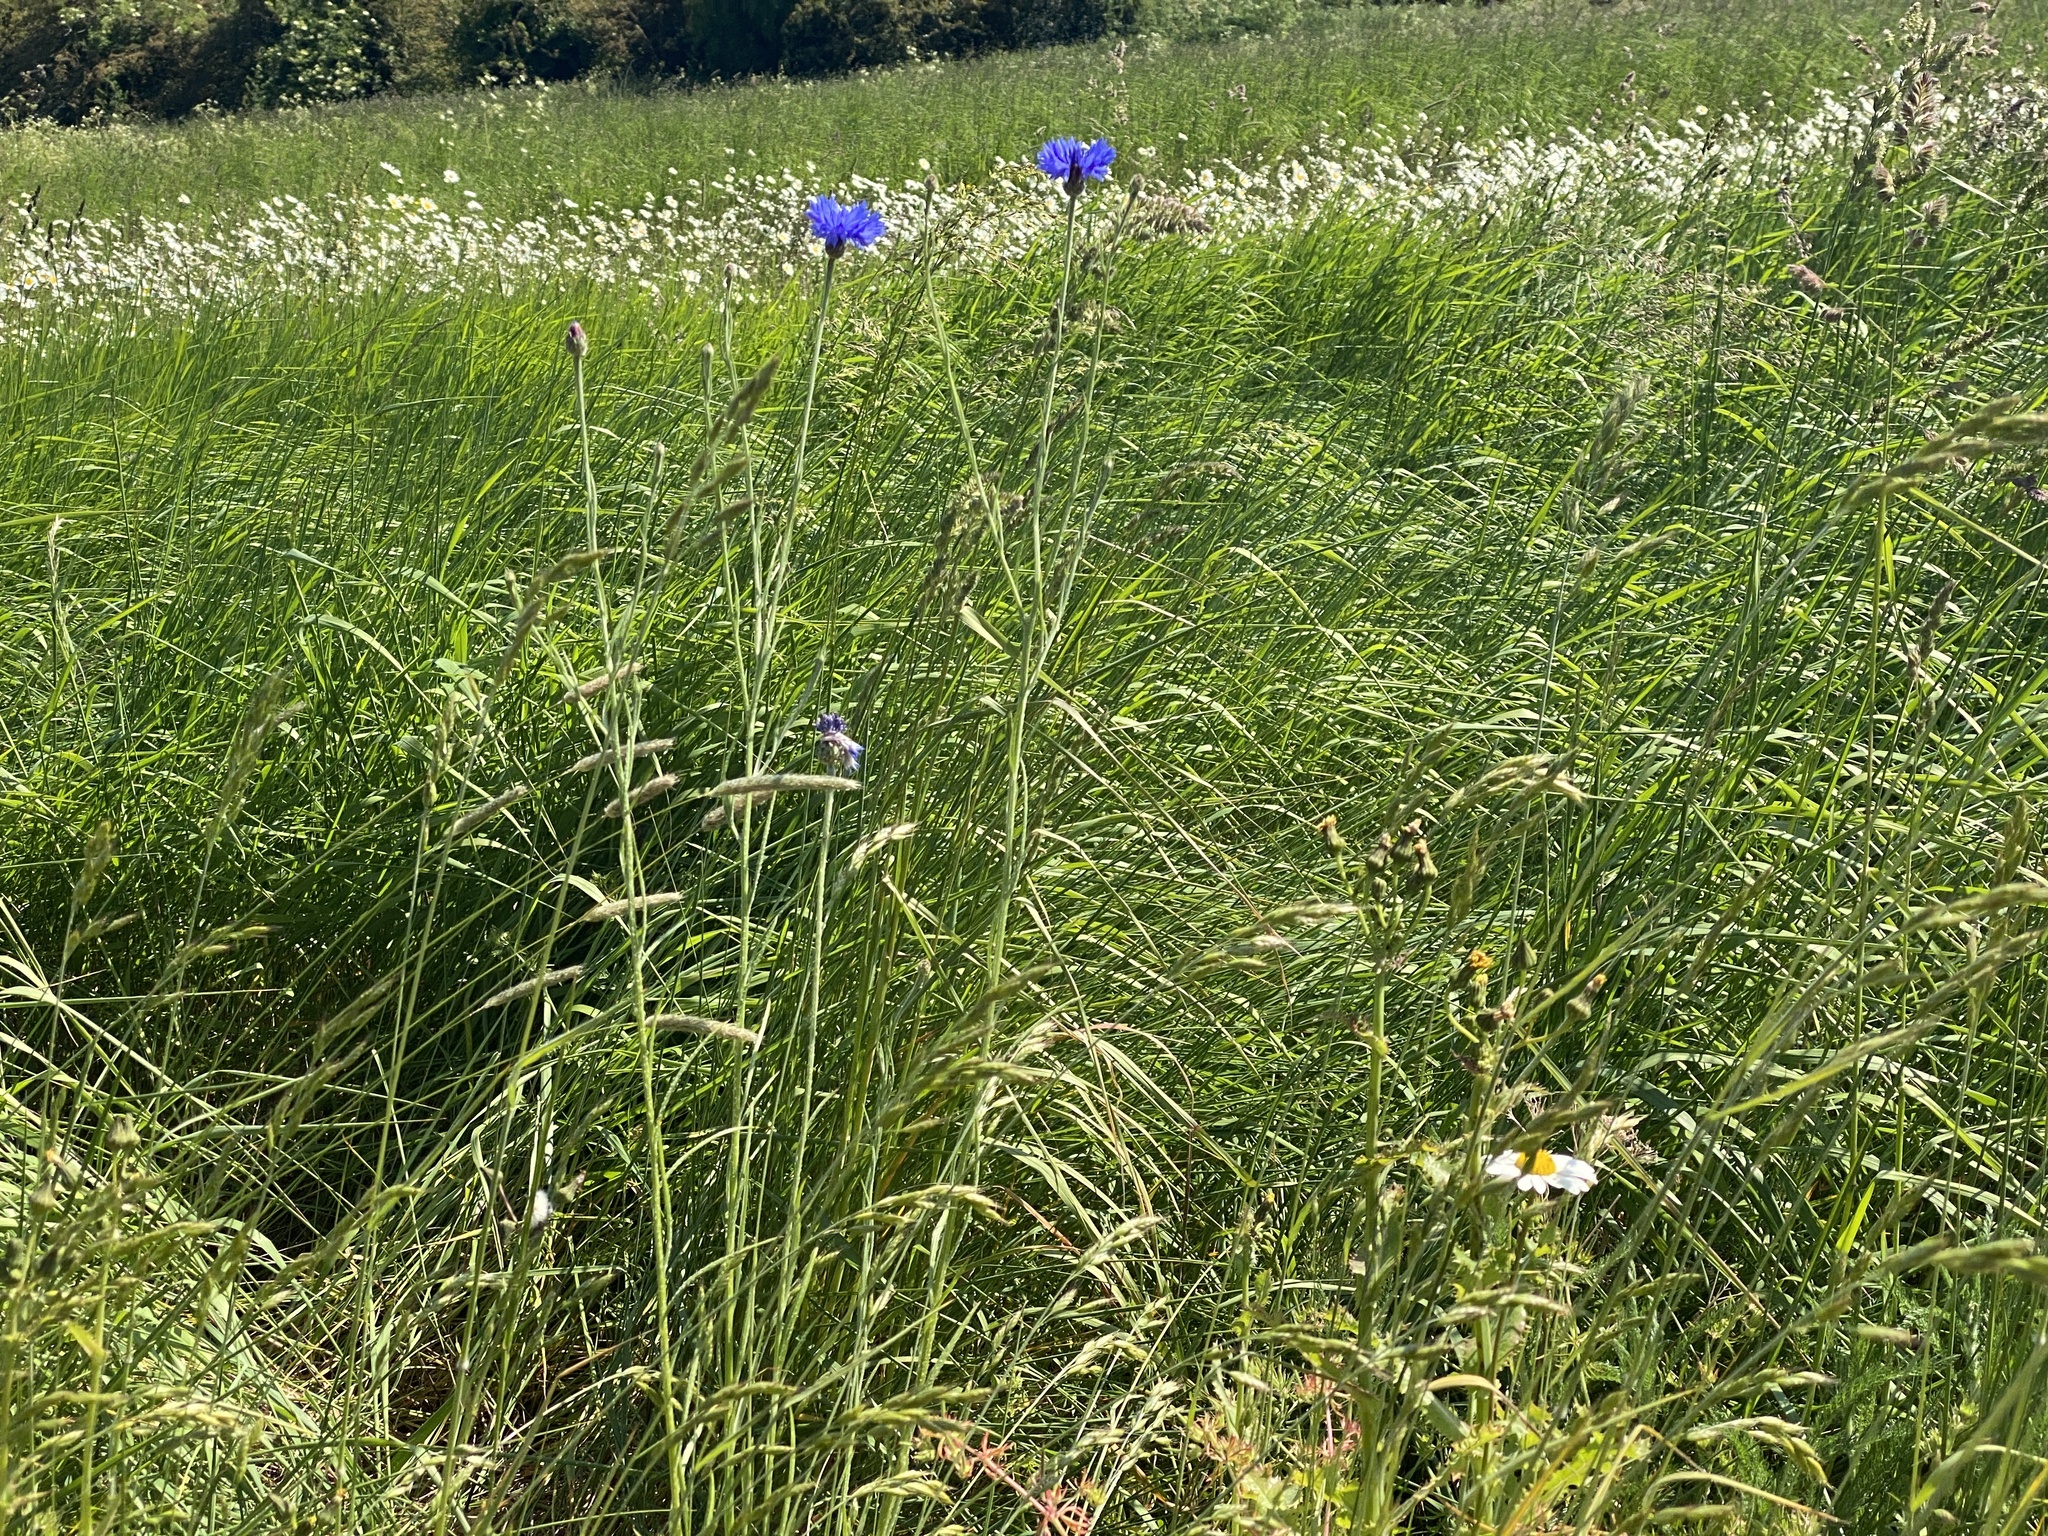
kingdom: Plantae
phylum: Tracheophyta
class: Magnoliopsida
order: Asterales
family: Asteraceae
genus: Centaurea
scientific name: Centaurea cyanus
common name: Cornflower
